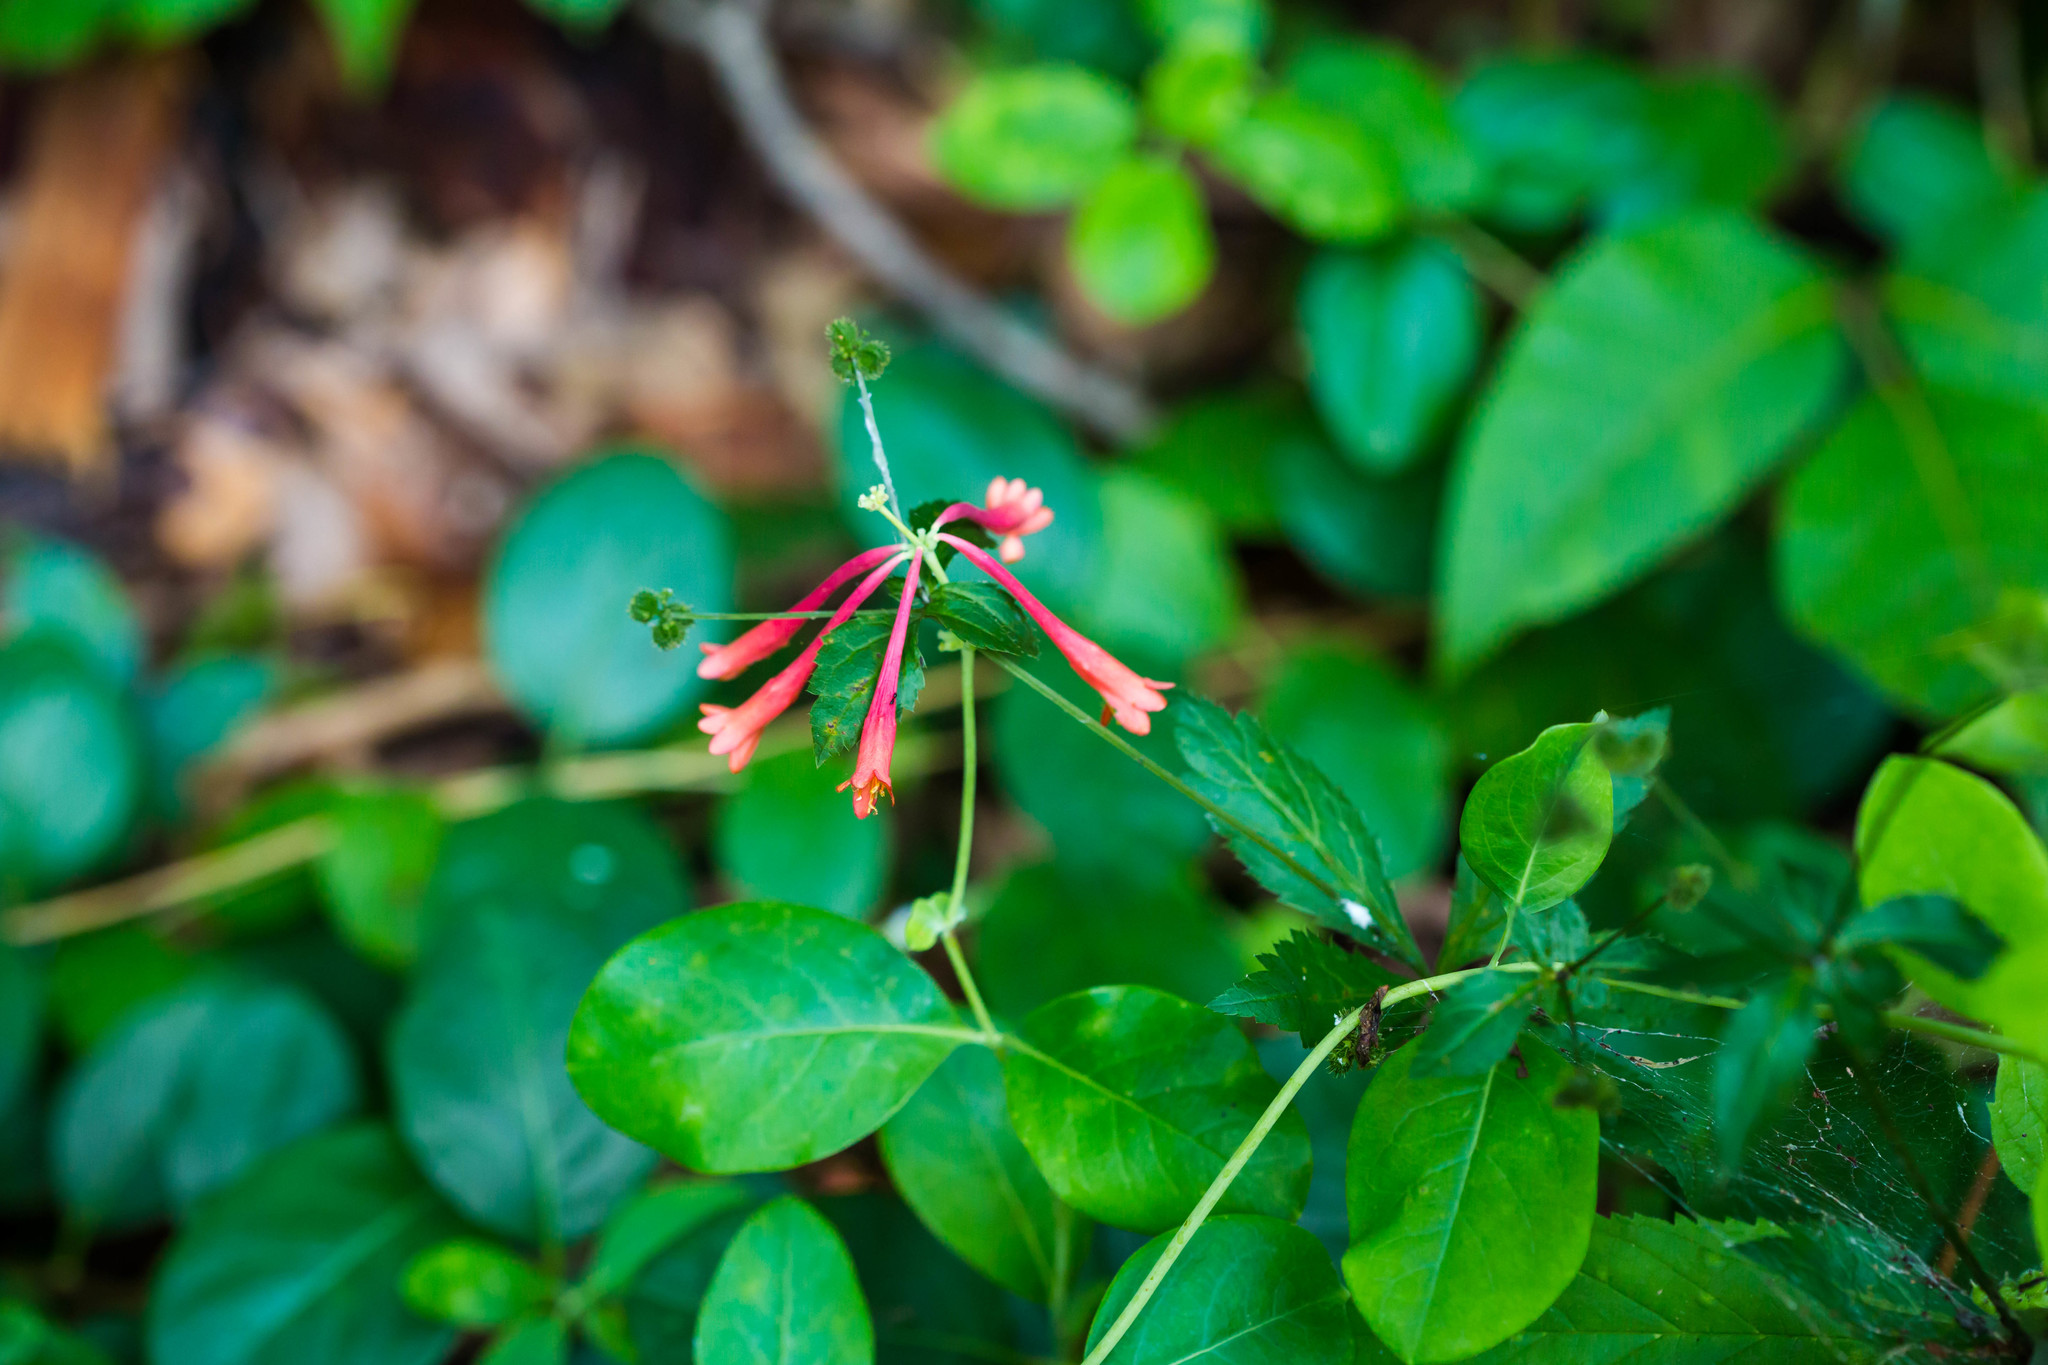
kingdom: Plantae
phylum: Tracheophyta
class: Magnoliopsida
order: Dipsacales
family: Caprifoliaceae
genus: Lonicera
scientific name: Lonicera sempervirens
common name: Coral honeysuckle
